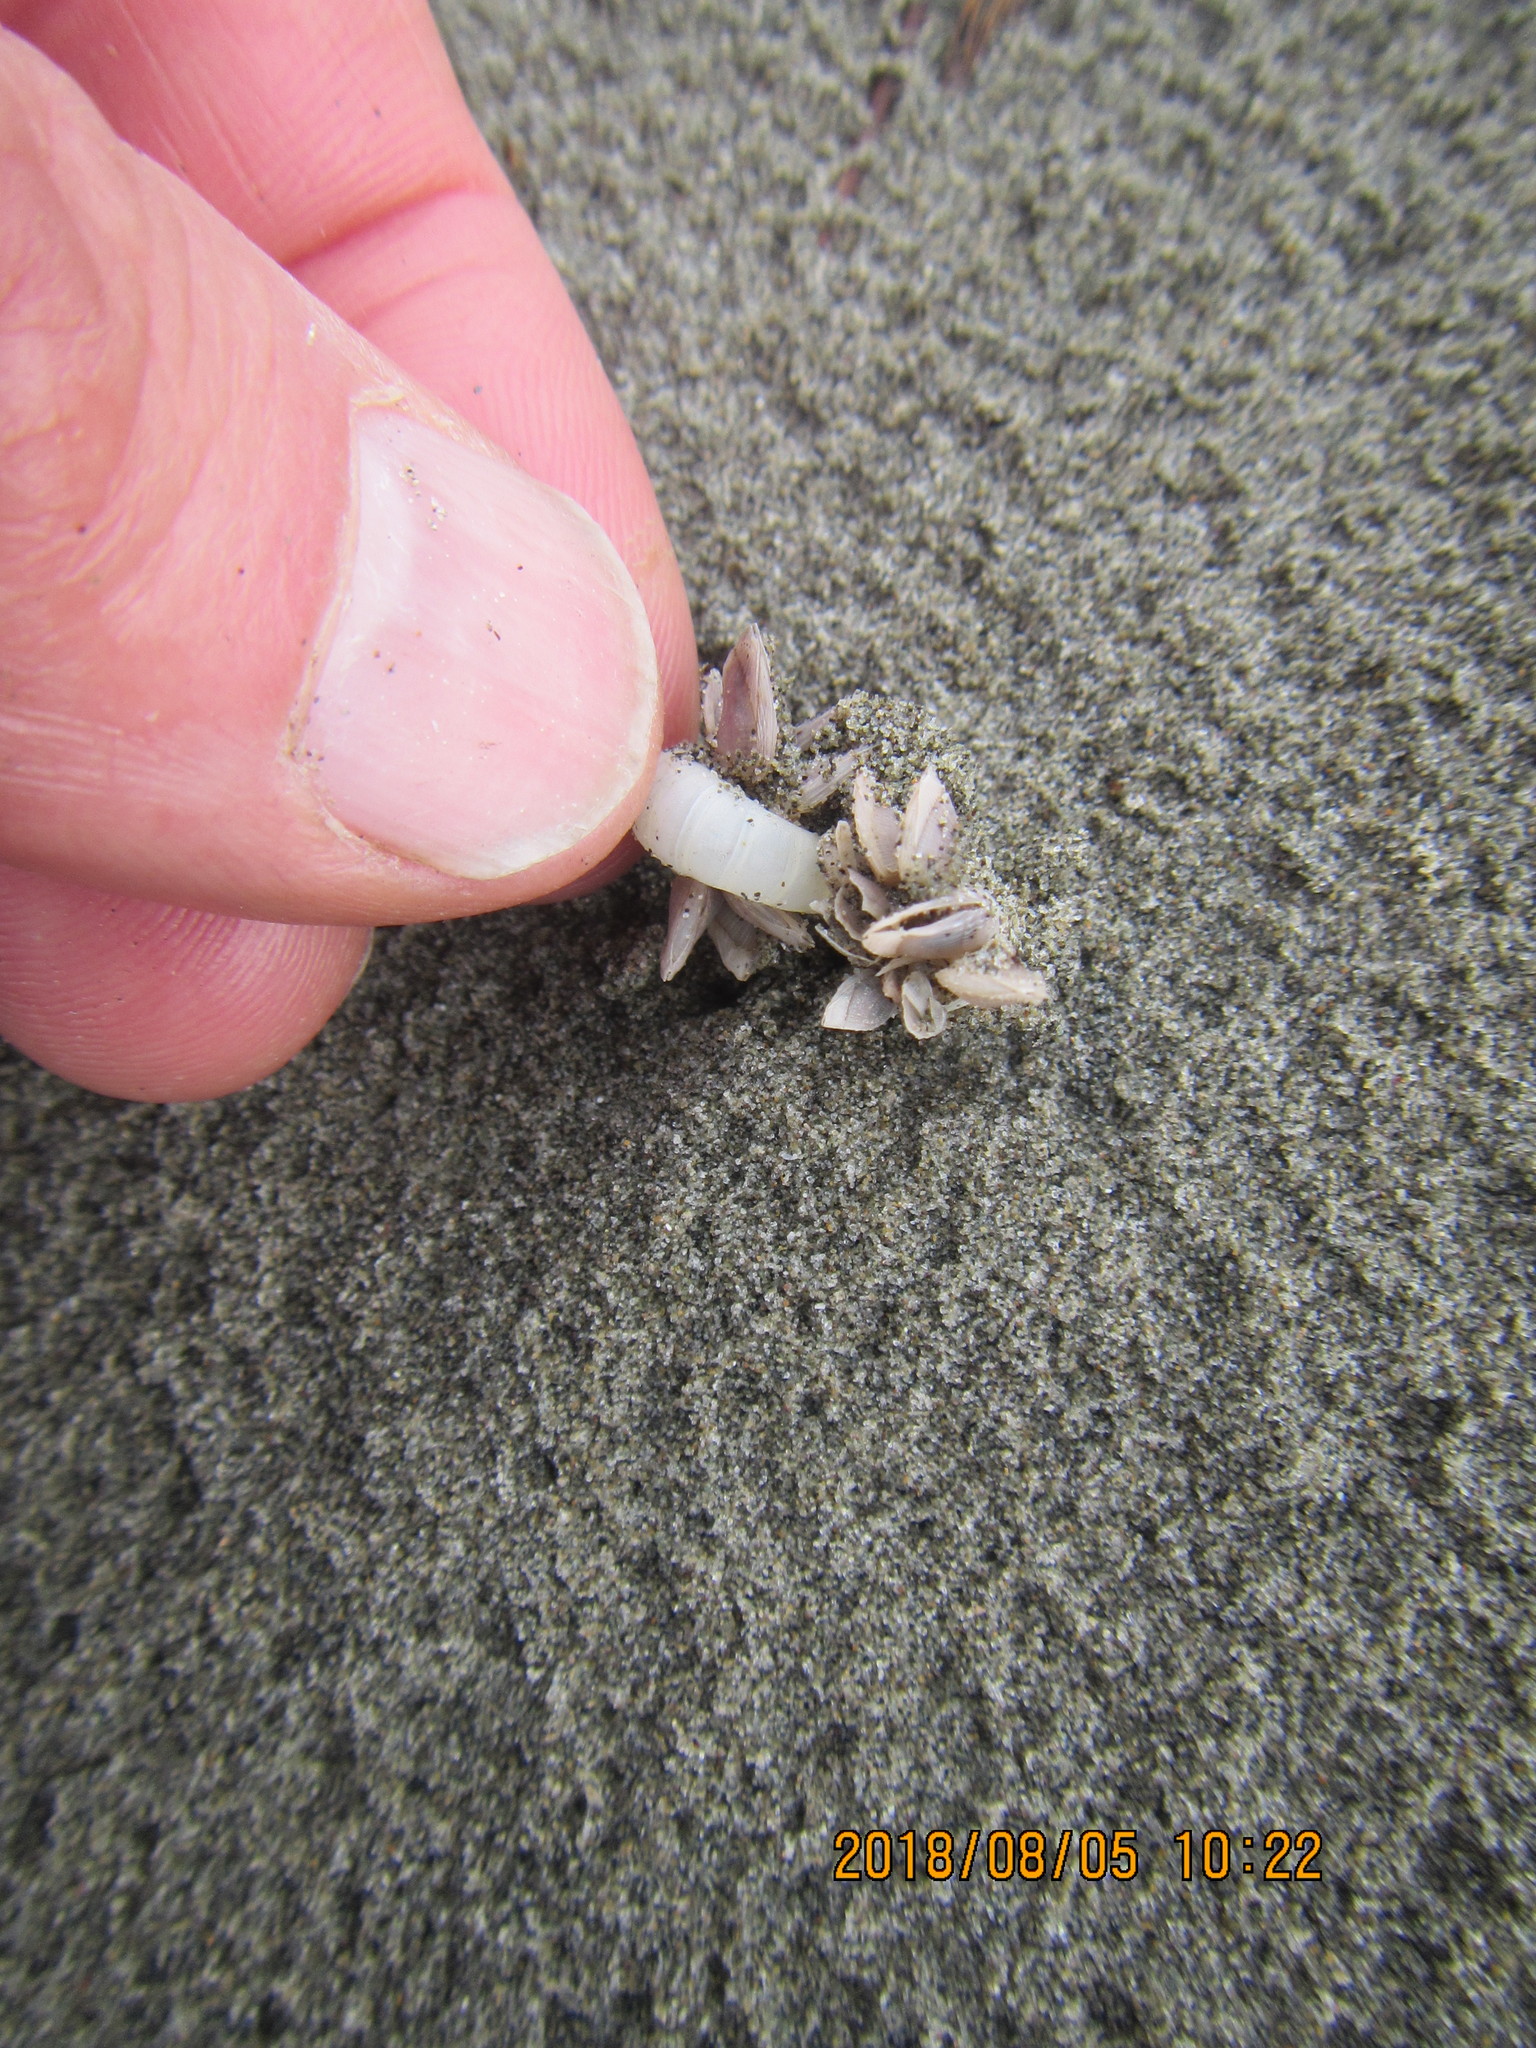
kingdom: Animalia
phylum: Mollusca
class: Cephalopoda
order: Spirulida
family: Spirulidae
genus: Spirula
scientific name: Spirula spirula
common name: Ram's horn squid
